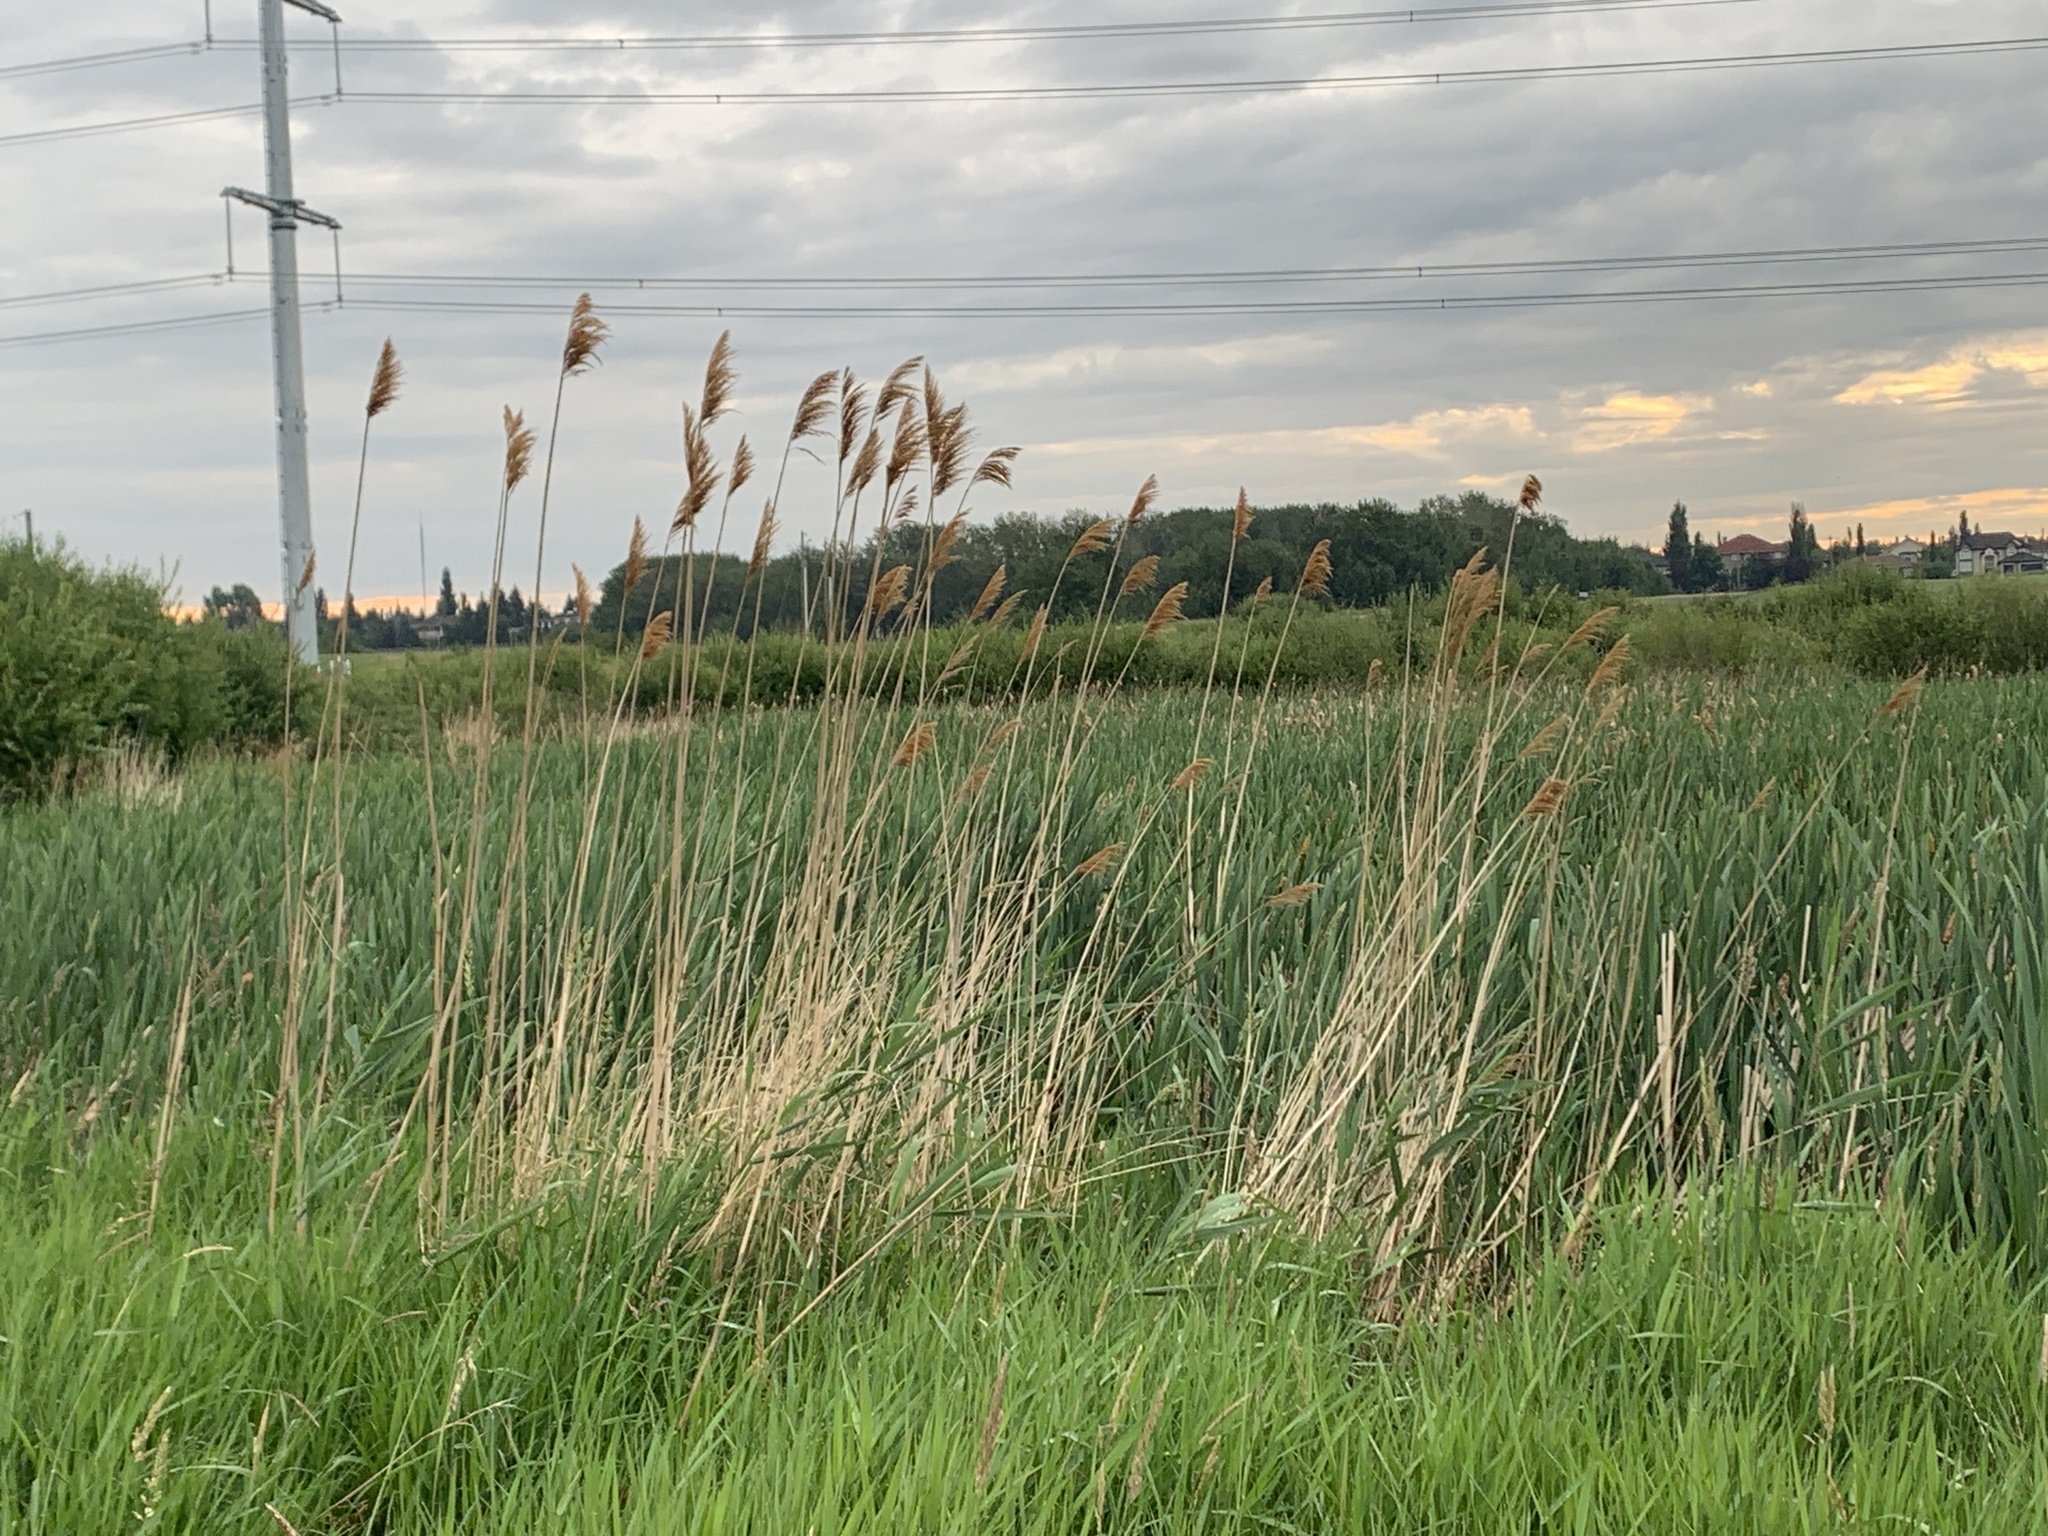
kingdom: Plantae
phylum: Tracheophyta
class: Liliopsida
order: Poales
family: Poaceae
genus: Phragmites
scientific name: Phragmites australis
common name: Common reed
